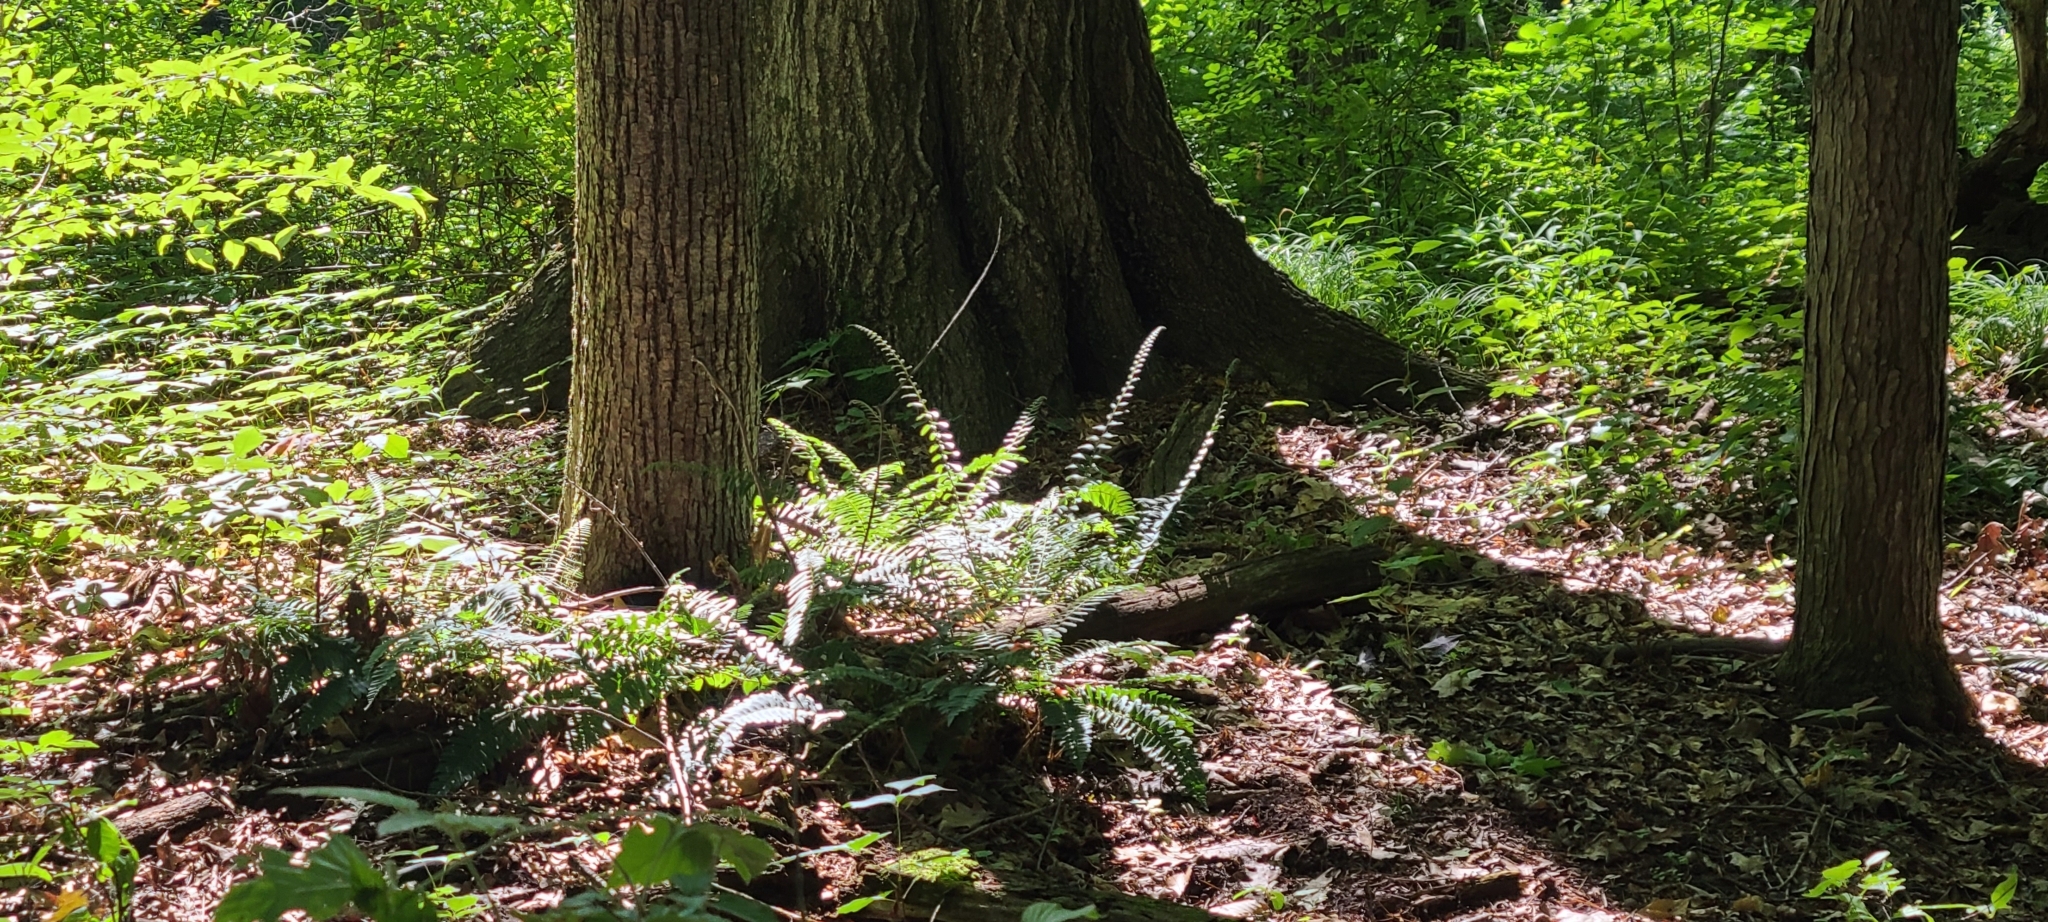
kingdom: Plantae
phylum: Tracheophyta
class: Polypodiopsida
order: Polypodiales
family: Dryopteridaceae
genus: Polystichum
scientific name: Polystichum acrostichoides
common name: Christmas fern
